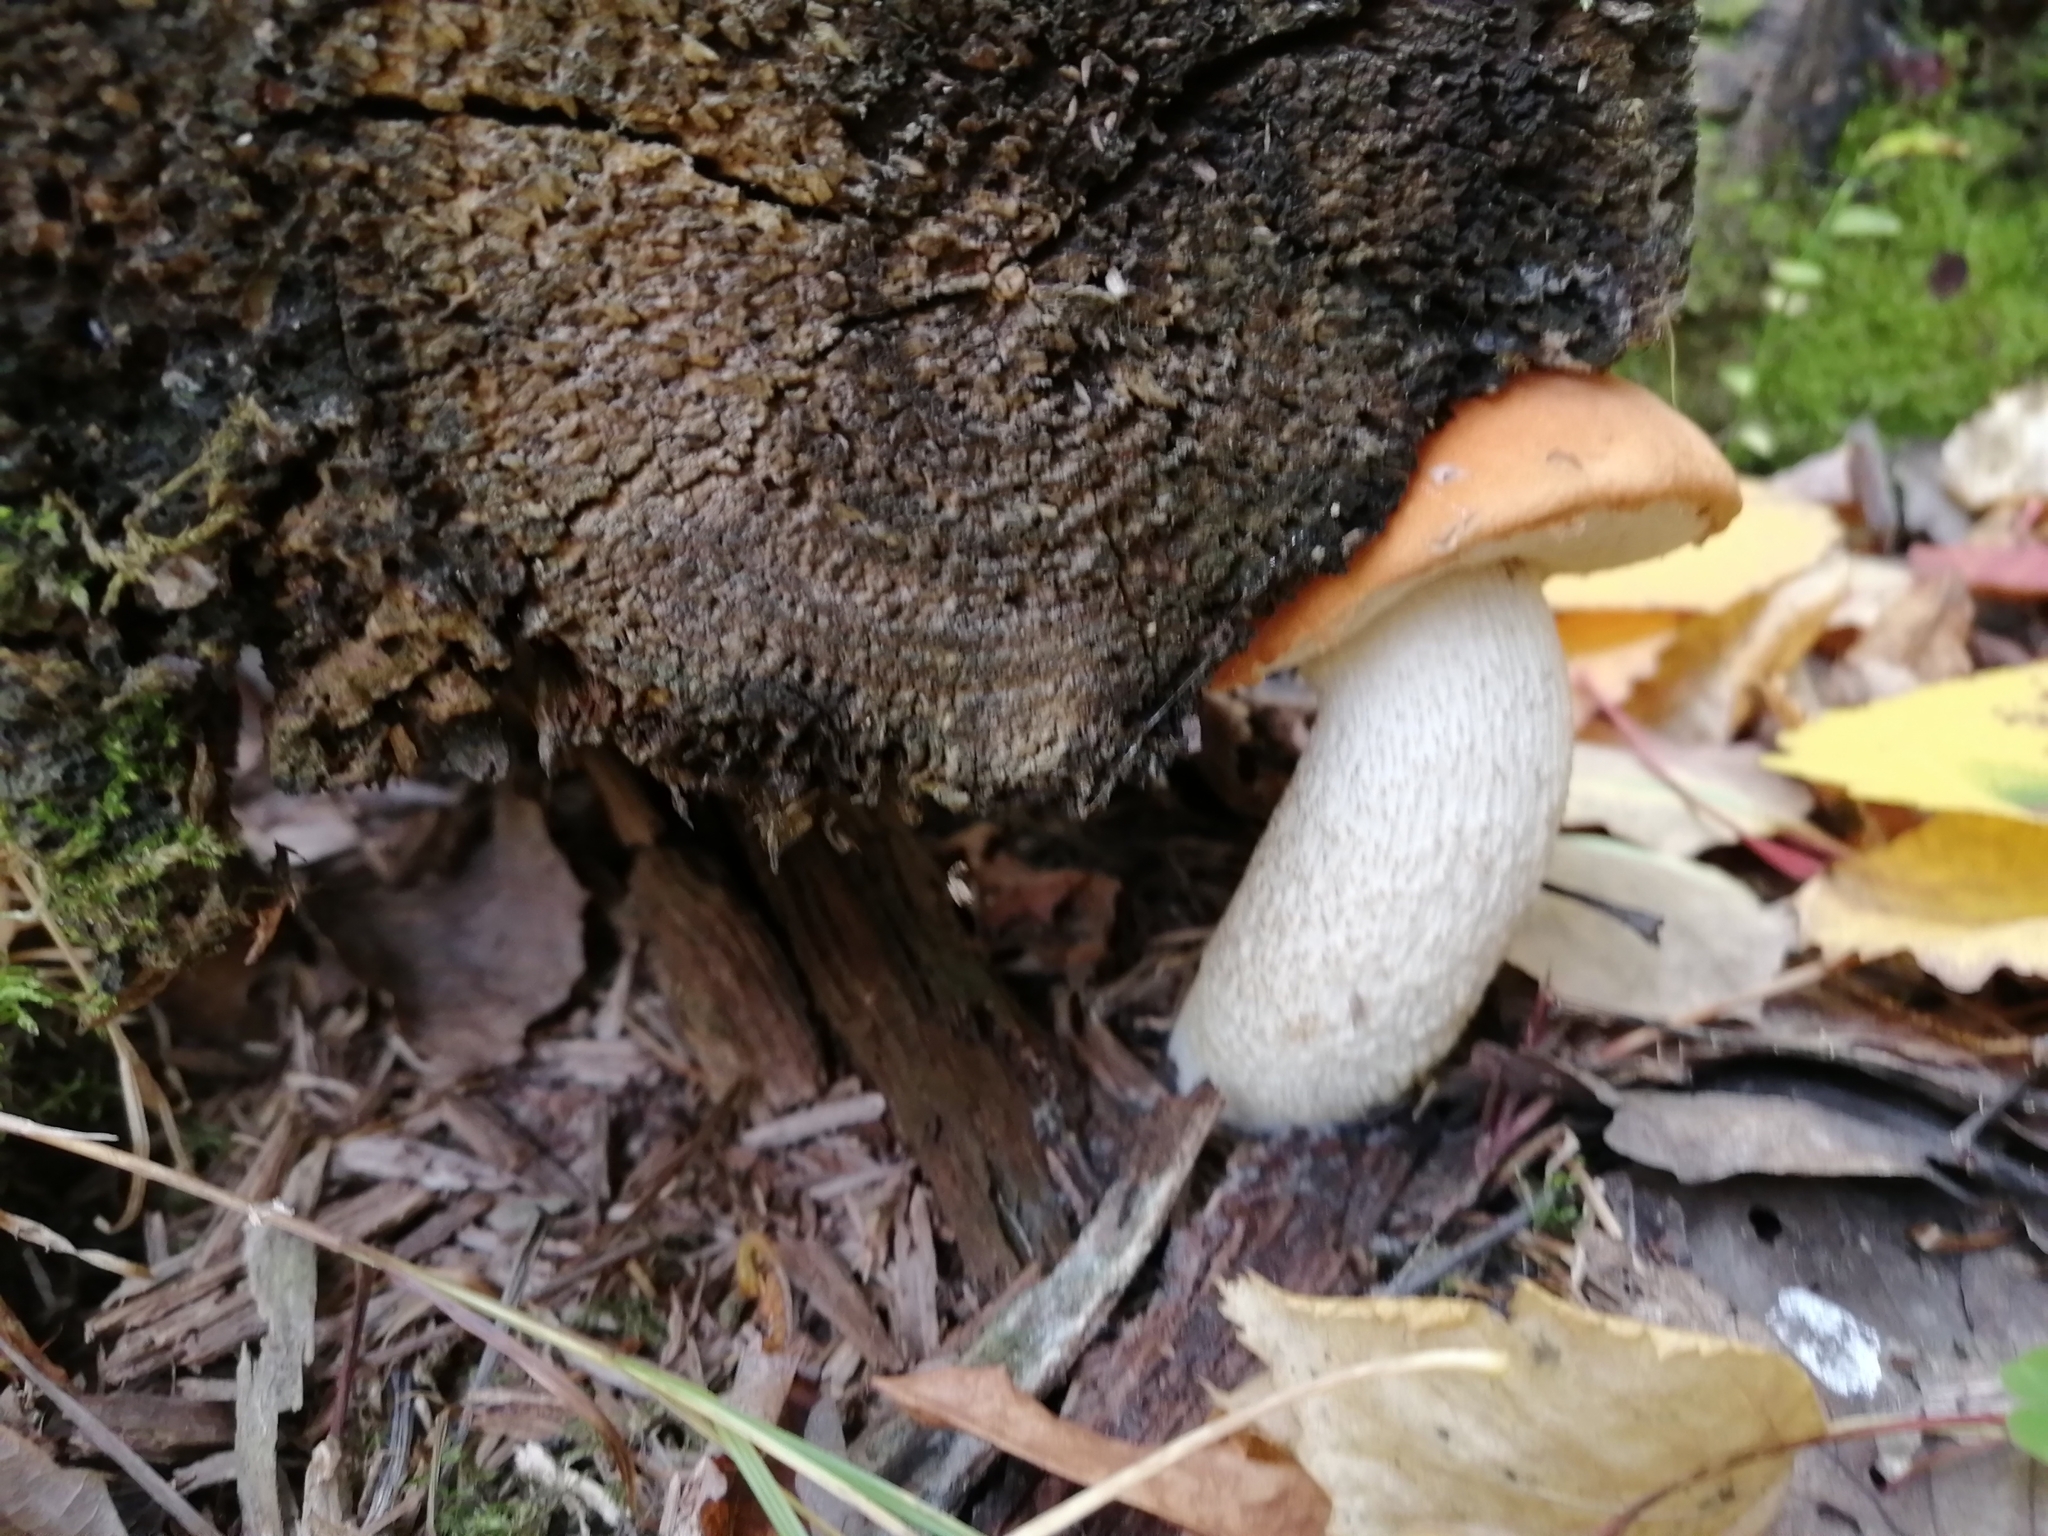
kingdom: Fungi
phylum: Basidiomycota
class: Agaricomycetes
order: Boletales
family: Boletaceae
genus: Leccinum
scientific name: Leccinum albostipitatum
